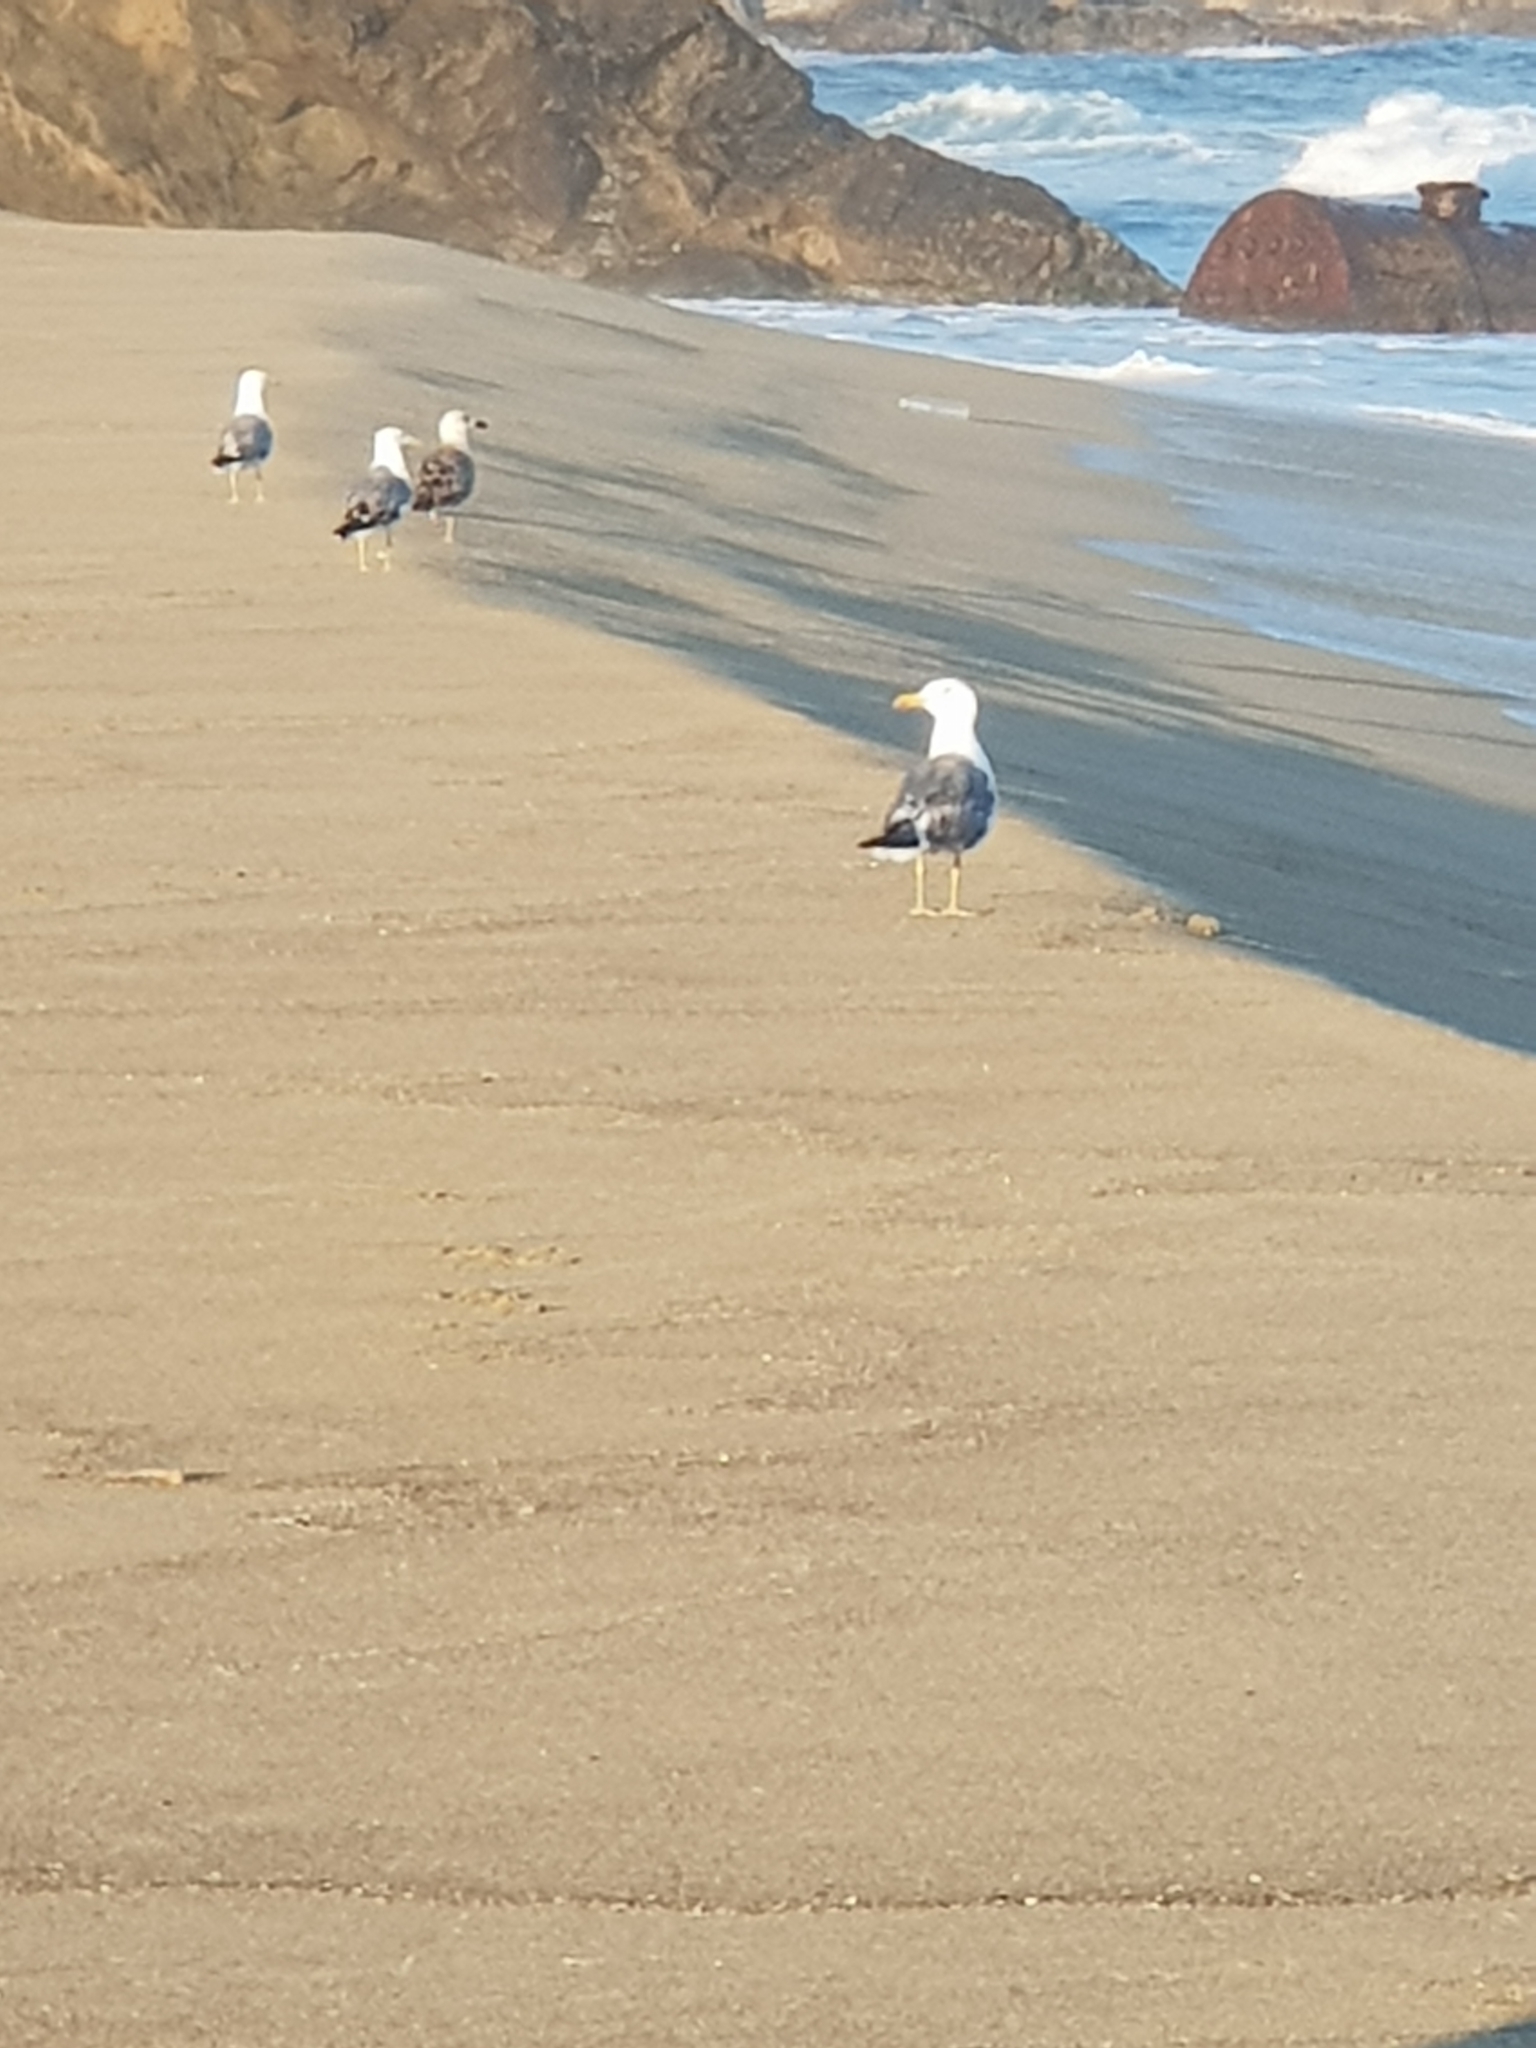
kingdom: Animalia
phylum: Chordata
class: Aves
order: Charadriiformes
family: Laridae
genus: Larus
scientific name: Larus michahellis
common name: Yellow-legged gull
